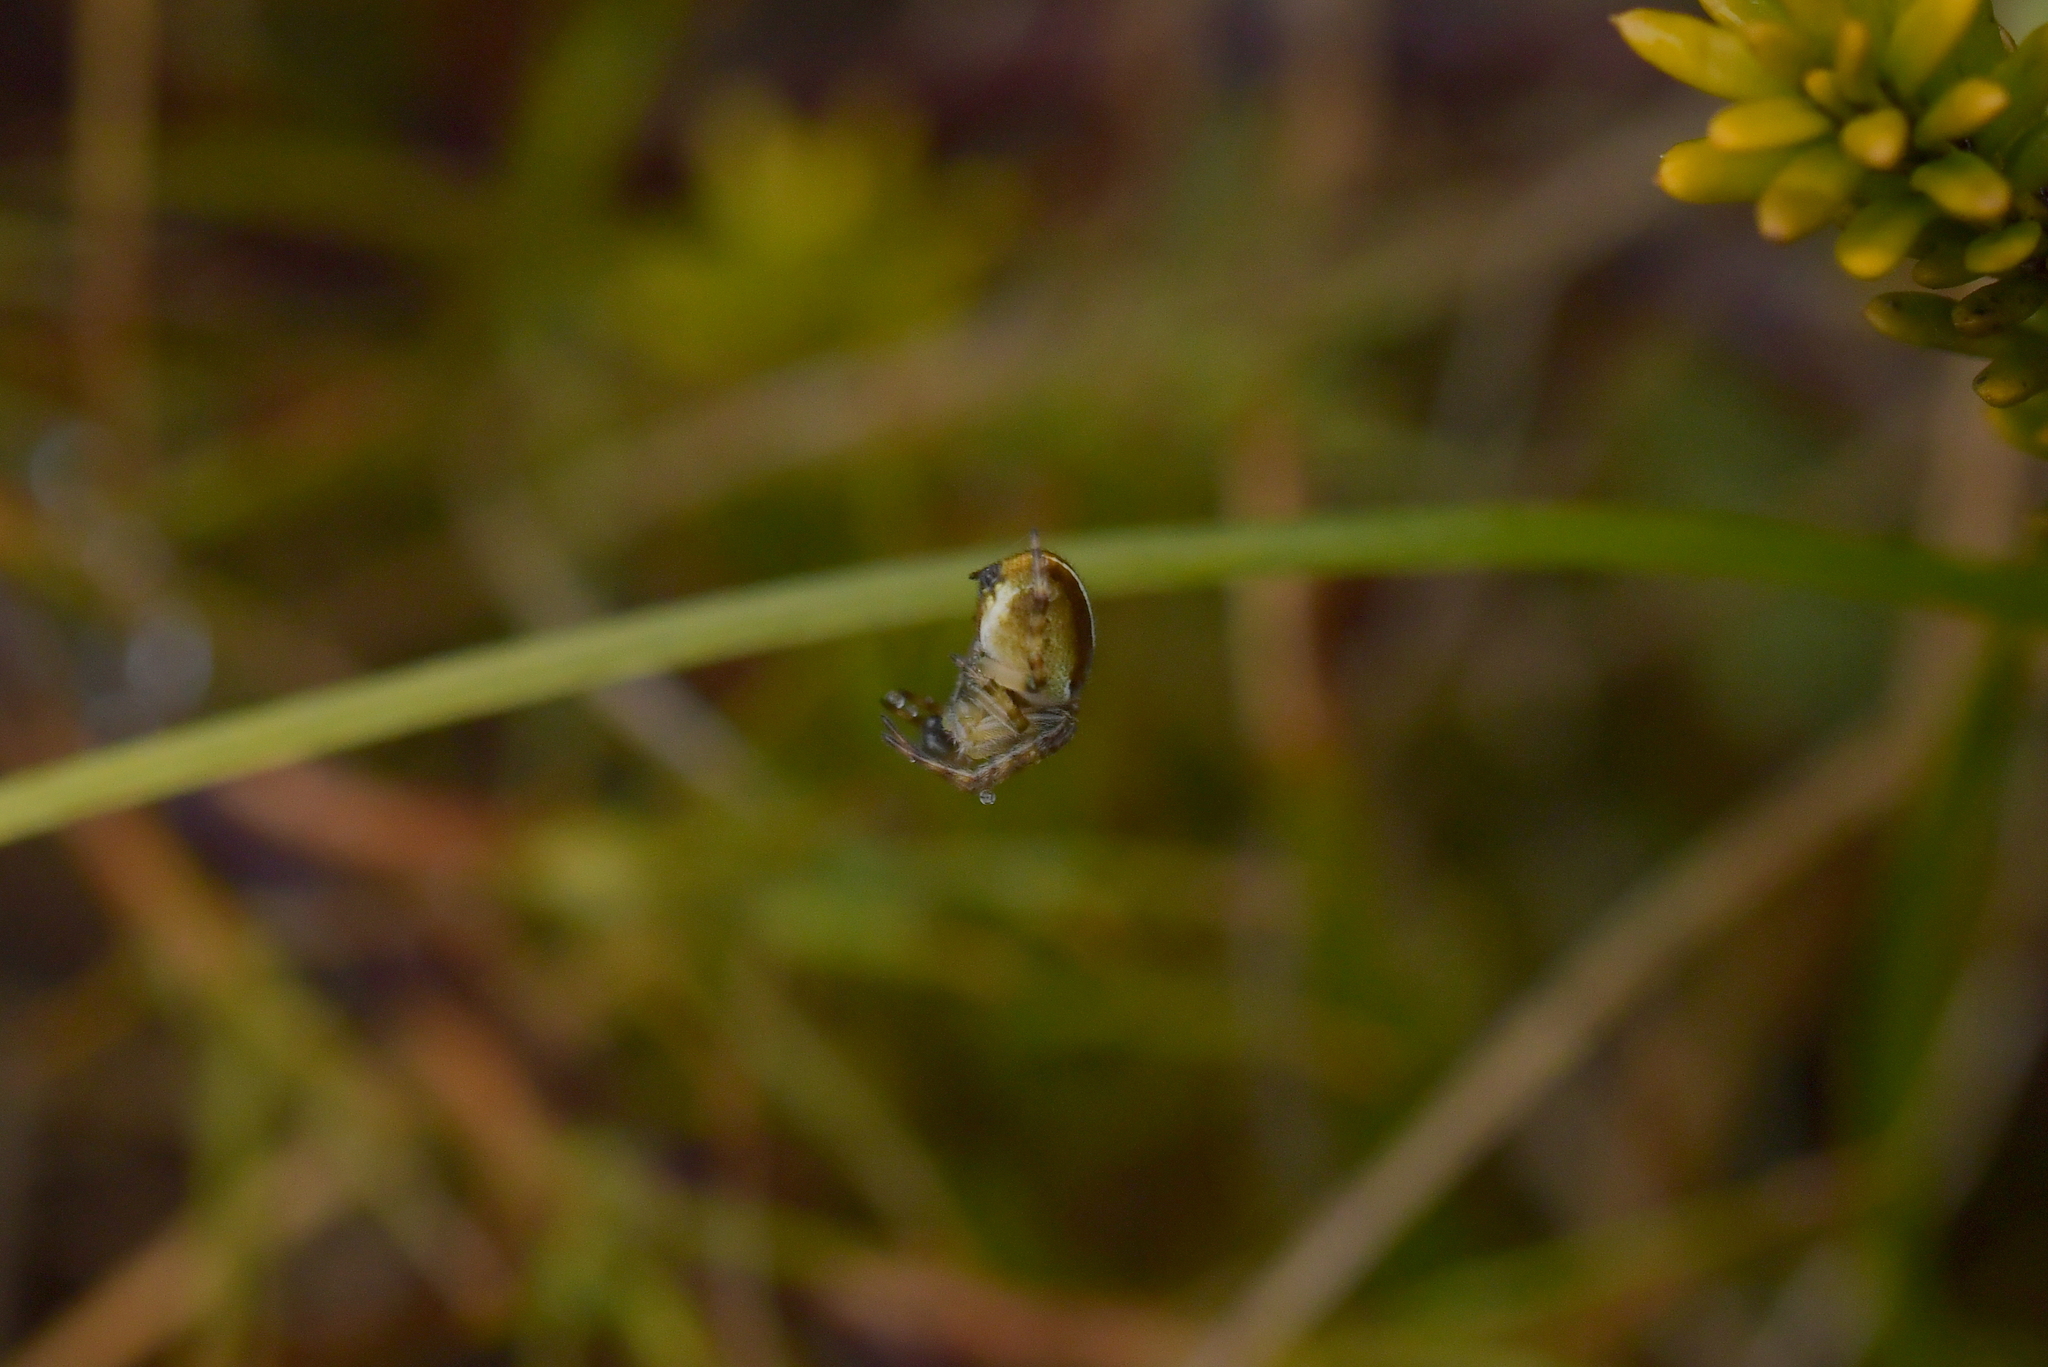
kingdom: Animalia
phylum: Arthropoda
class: Arachnida
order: Araneae
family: Araneidae
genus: Colaranea
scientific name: Colaranea brunnea
